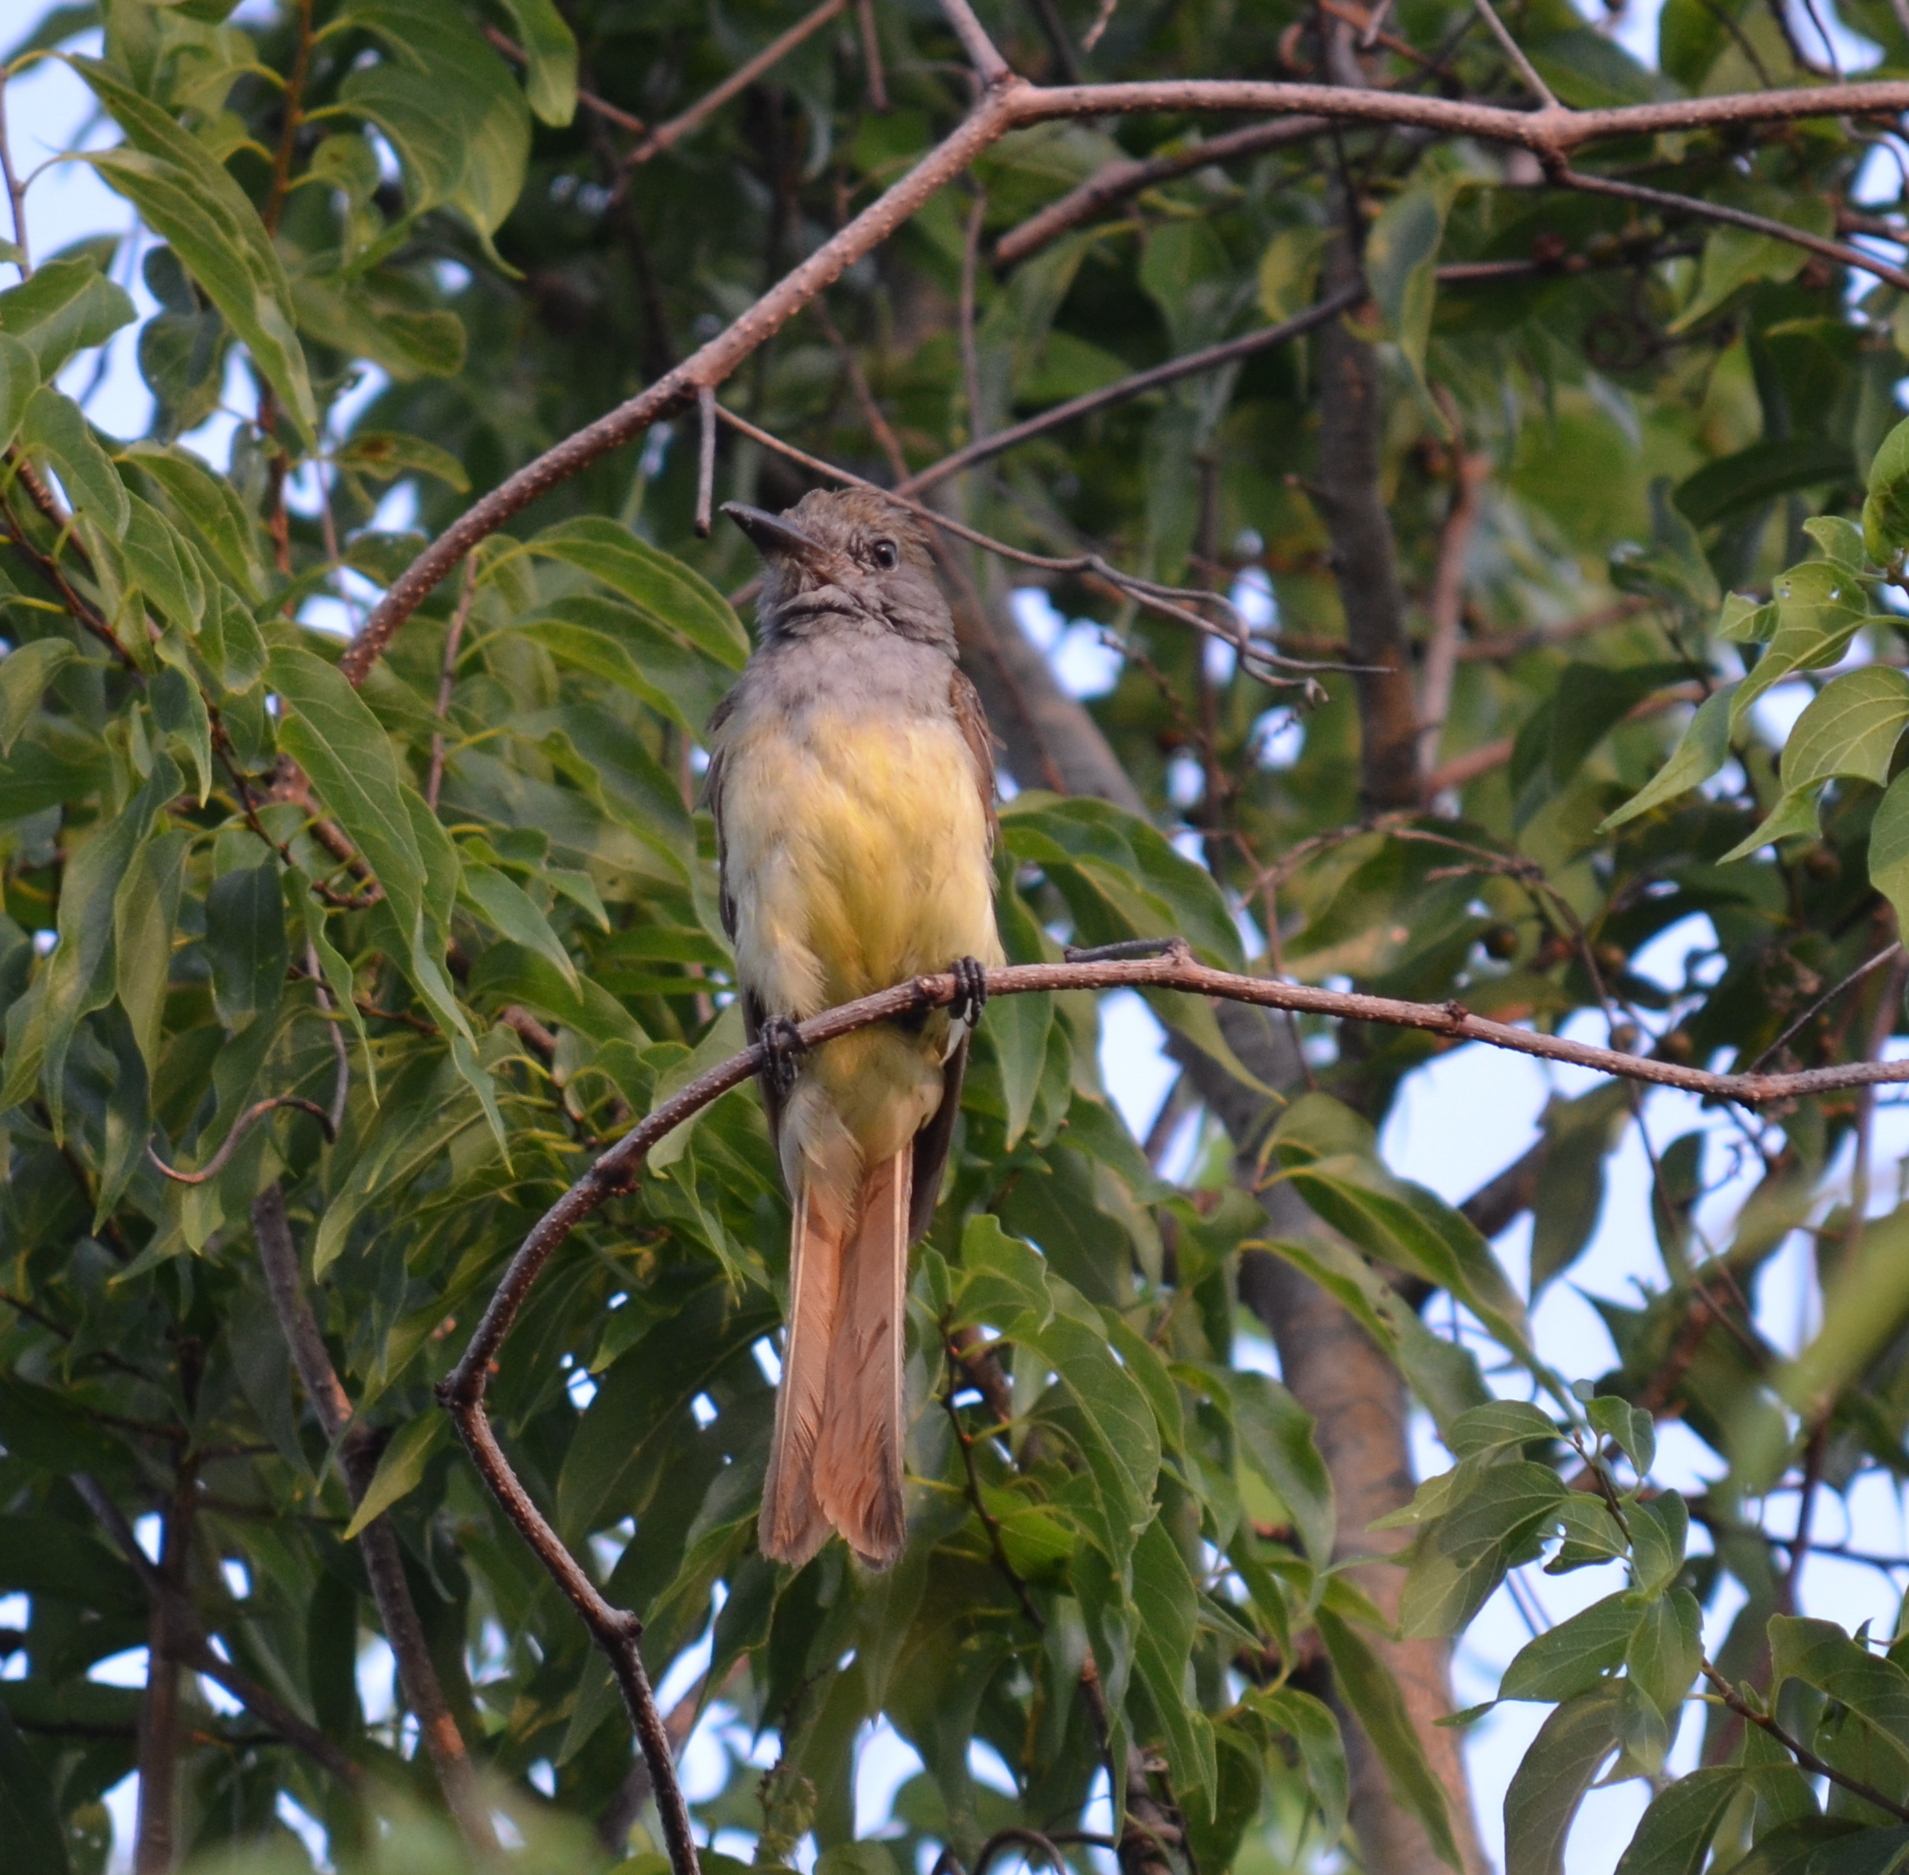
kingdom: Animalia
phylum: Chordata
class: Aves
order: Passeriformes
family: Tyrannidae
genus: Myiarchus
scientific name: Myiarchus crinitus
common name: Great crested flycatcher
